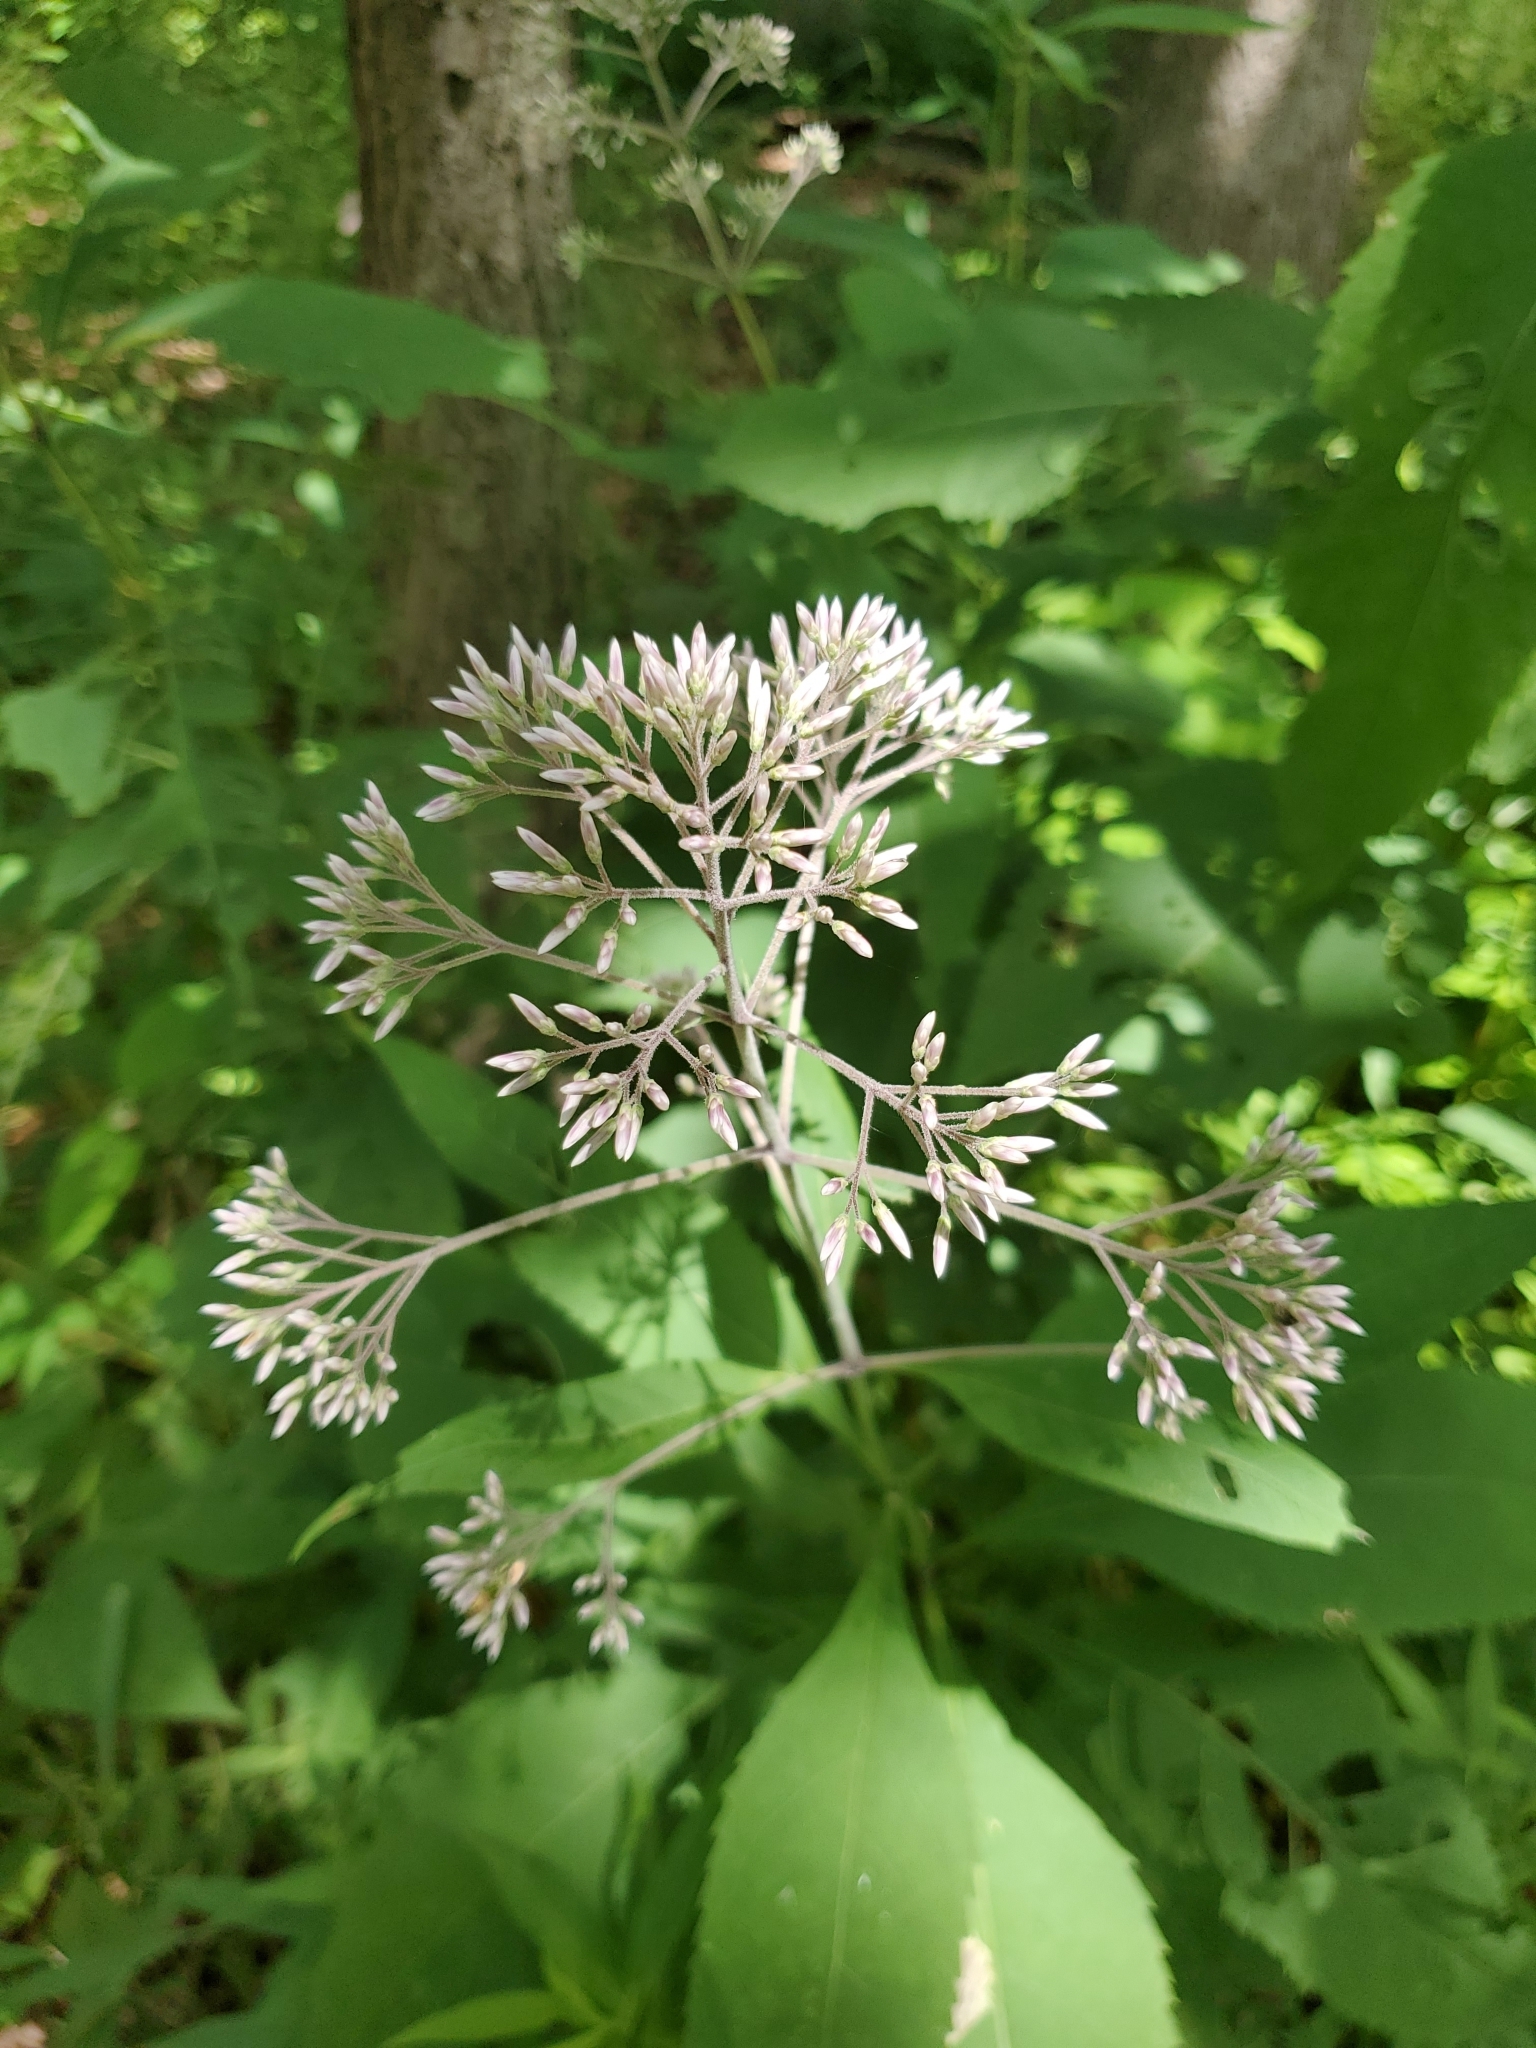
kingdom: Plantae
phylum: Tracheophyta
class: Magnoliopsida
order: Asterales
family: Asteraceae
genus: Eutrochium
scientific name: Eutrochium purpureum
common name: Gravelroot
